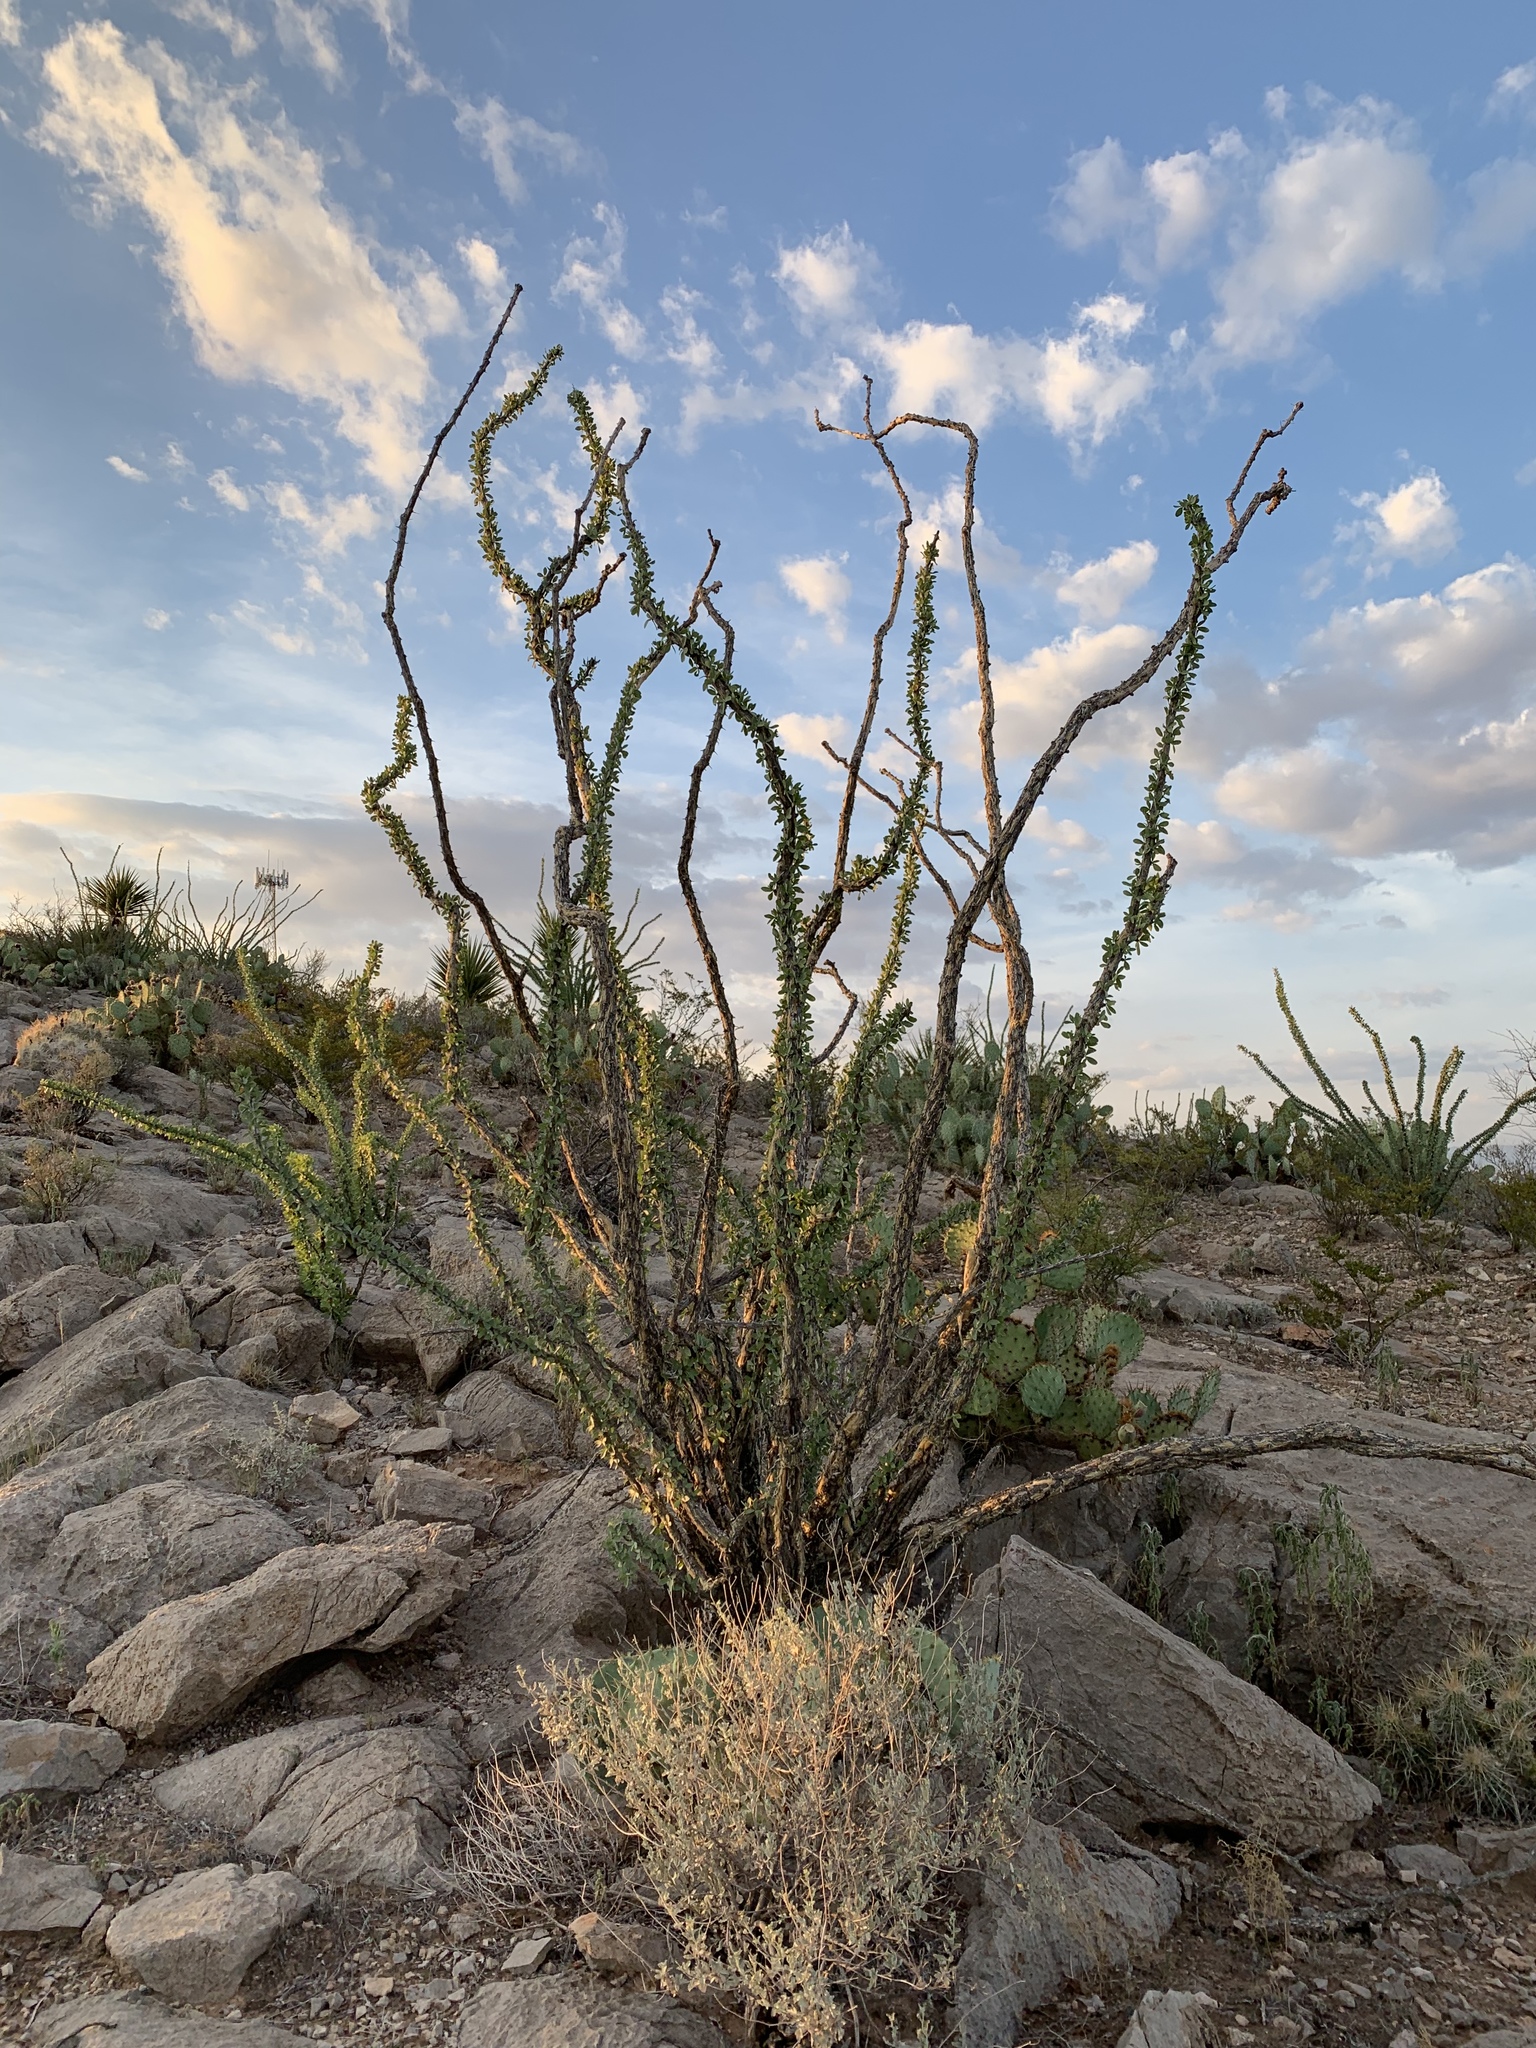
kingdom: Plantae
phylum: Tracheophyta
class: Magnoliopsida
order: Ericales
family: Fouquieriaceae
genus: Fouquieria
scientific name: Fouquieria splendens
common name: Vine-cactus
